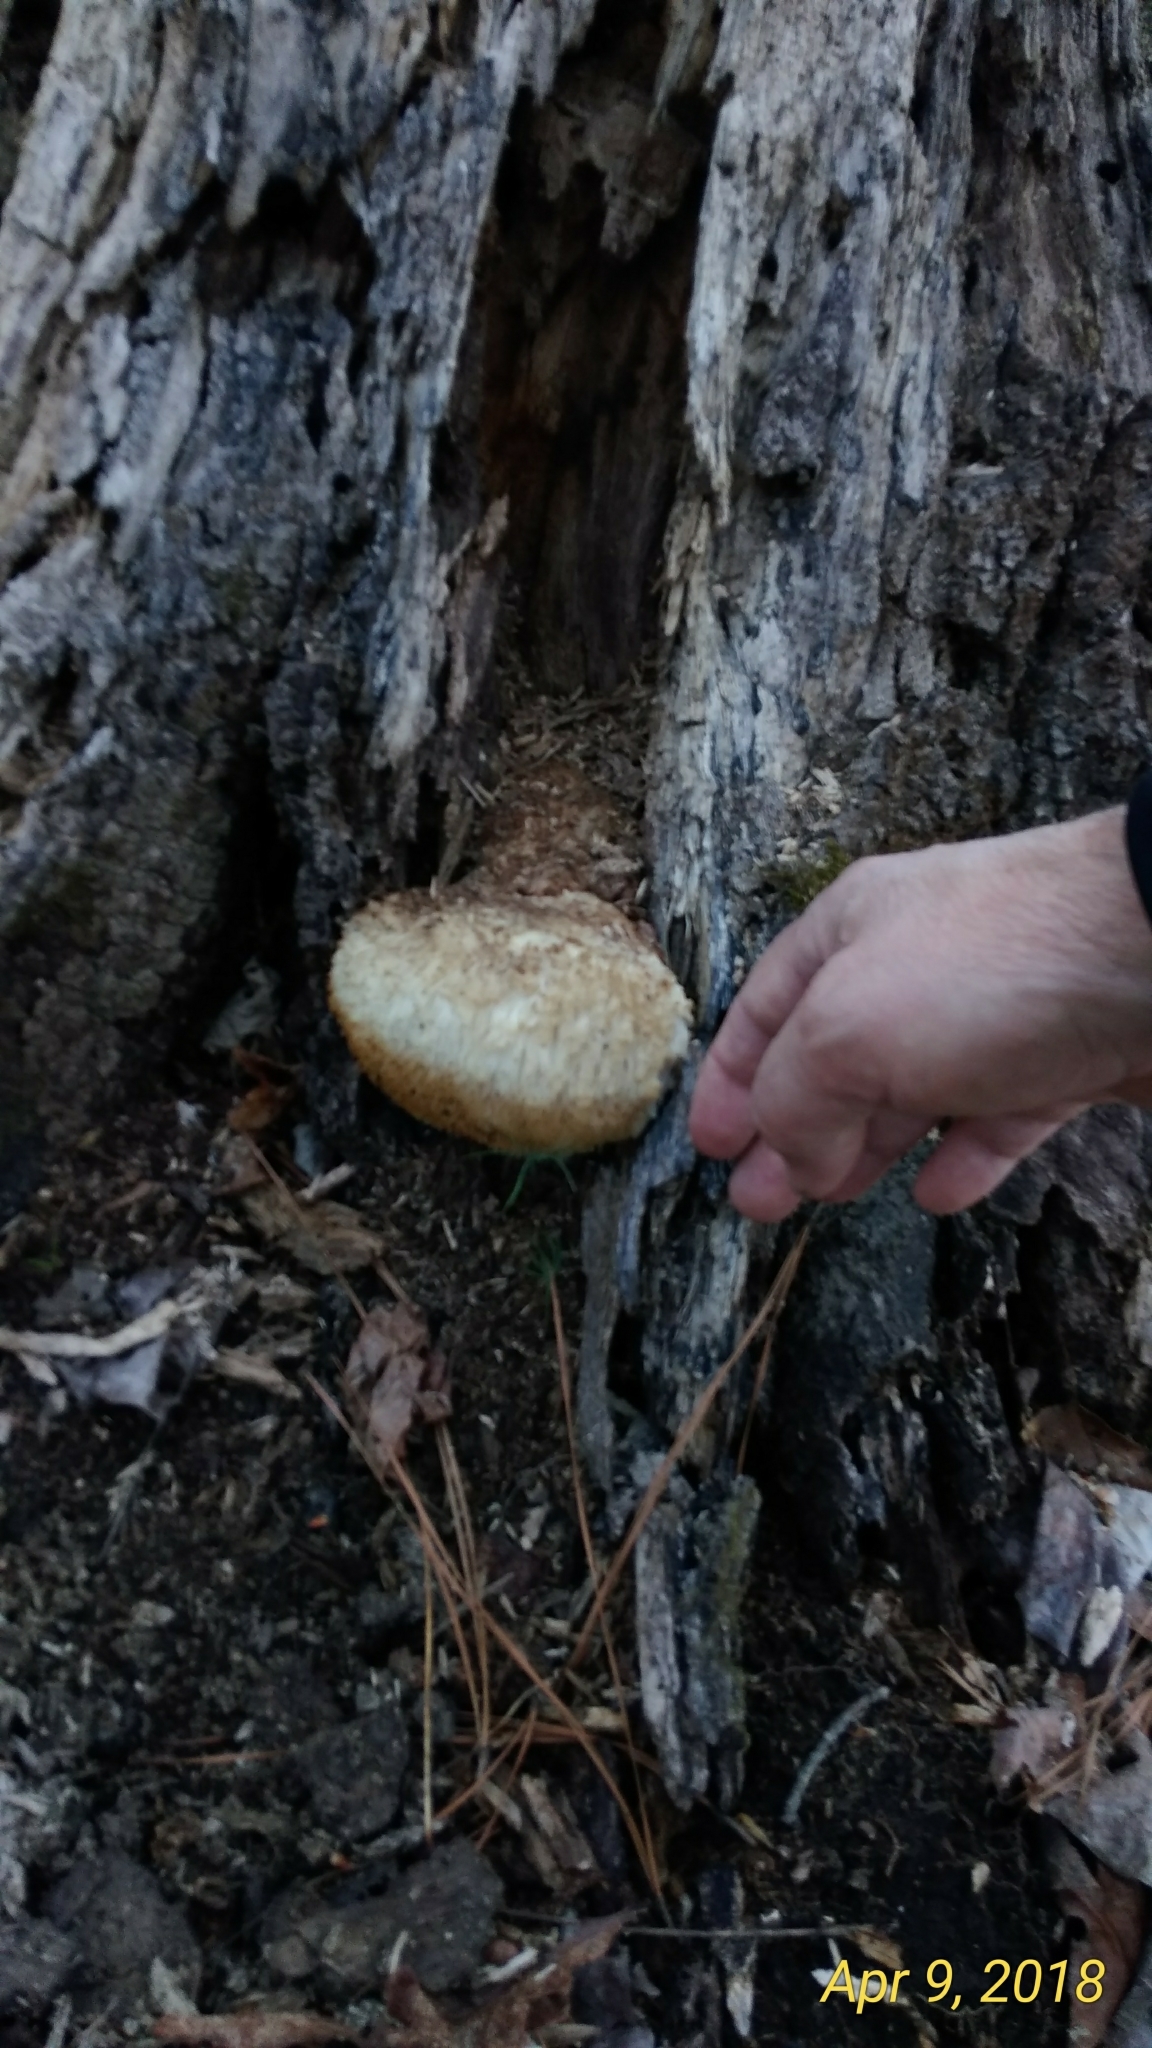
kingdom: Fungi
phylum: Basidiomycota
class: Agaricomycetes
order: Russulales
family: Hericiaceae
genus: Hericium
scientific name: Hericium erinaceus
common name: Bearded tooth
